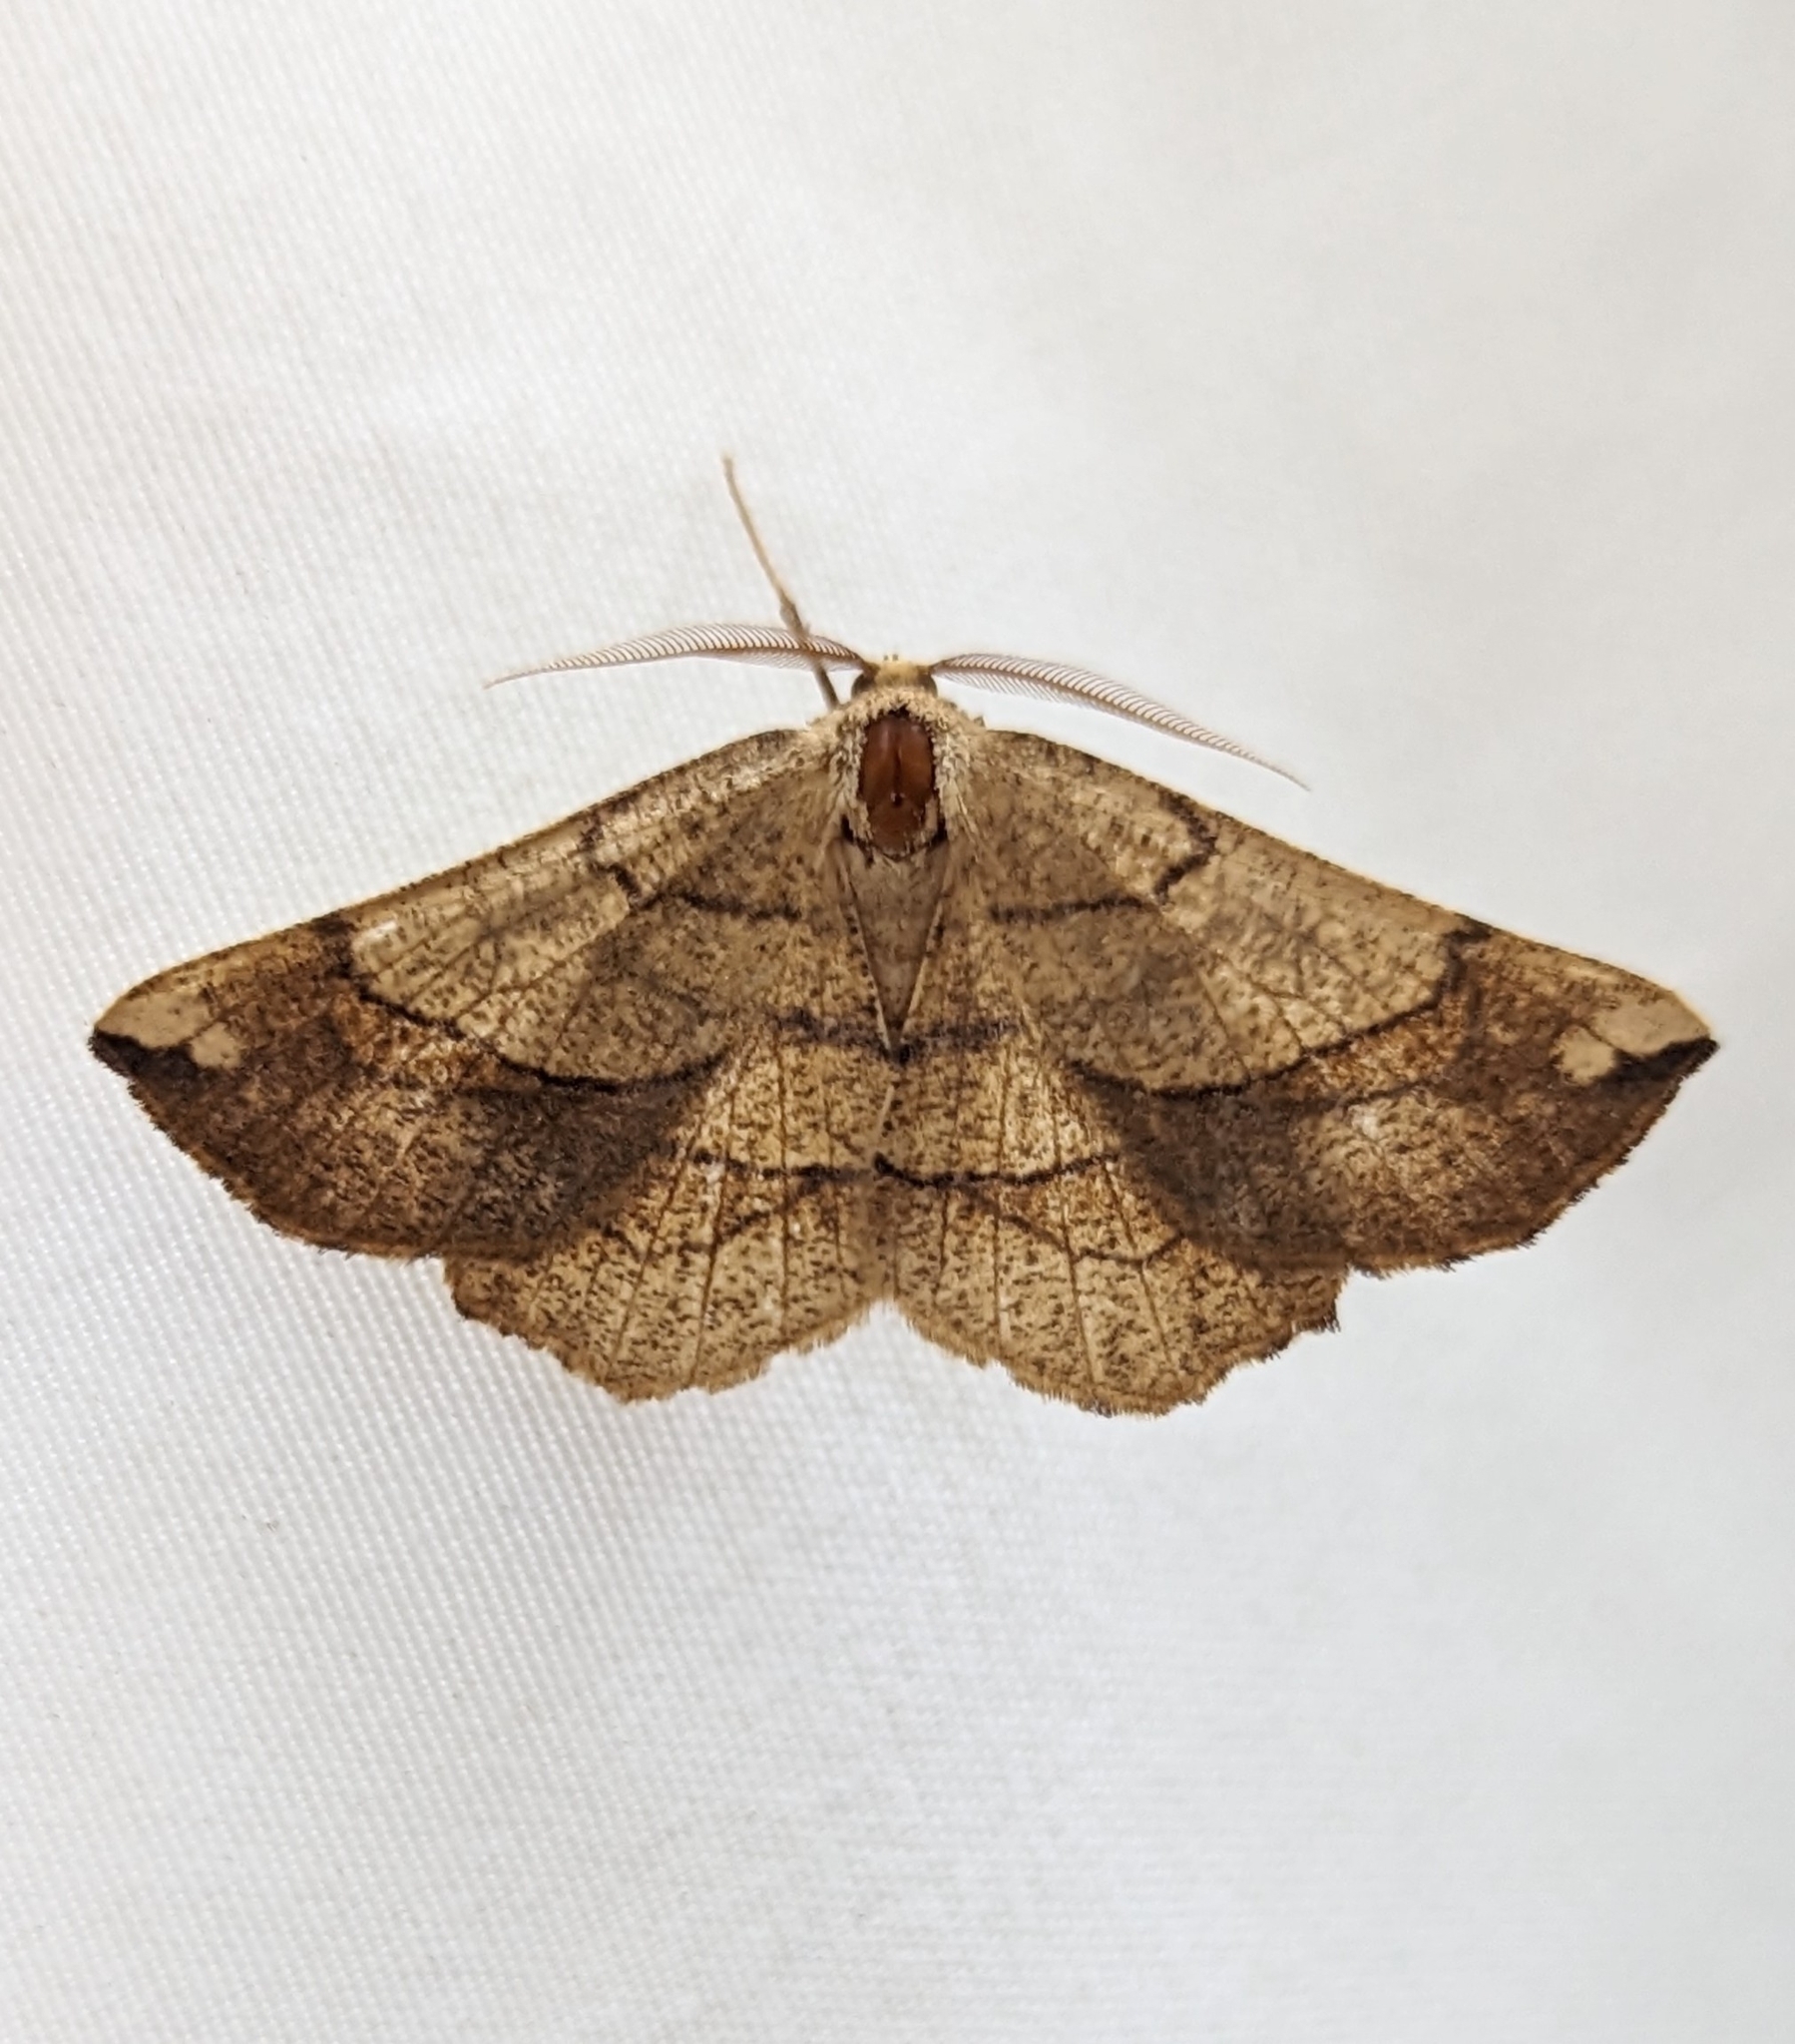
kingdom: Animalia
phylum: Arthropoda
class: Insecta
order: Lepidoptera
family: Geometridae
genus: Euchlaena
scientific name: Euchlaena madusaria
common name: Scrub euchlaena moth
